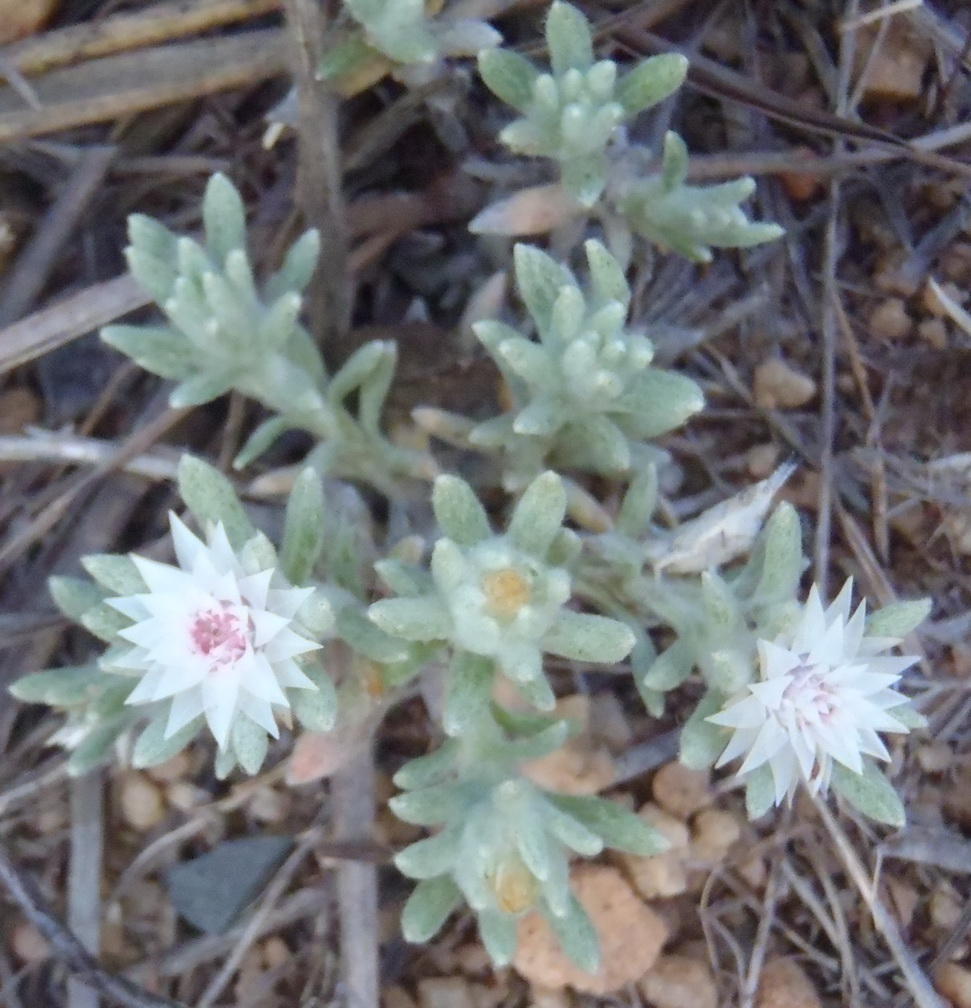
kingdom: Plantae
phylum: Tracheophyta
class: Magnoliopsida
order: Asterales
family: Asteraceae
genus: Helichrysum
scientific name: Helichrysum cerastioides
